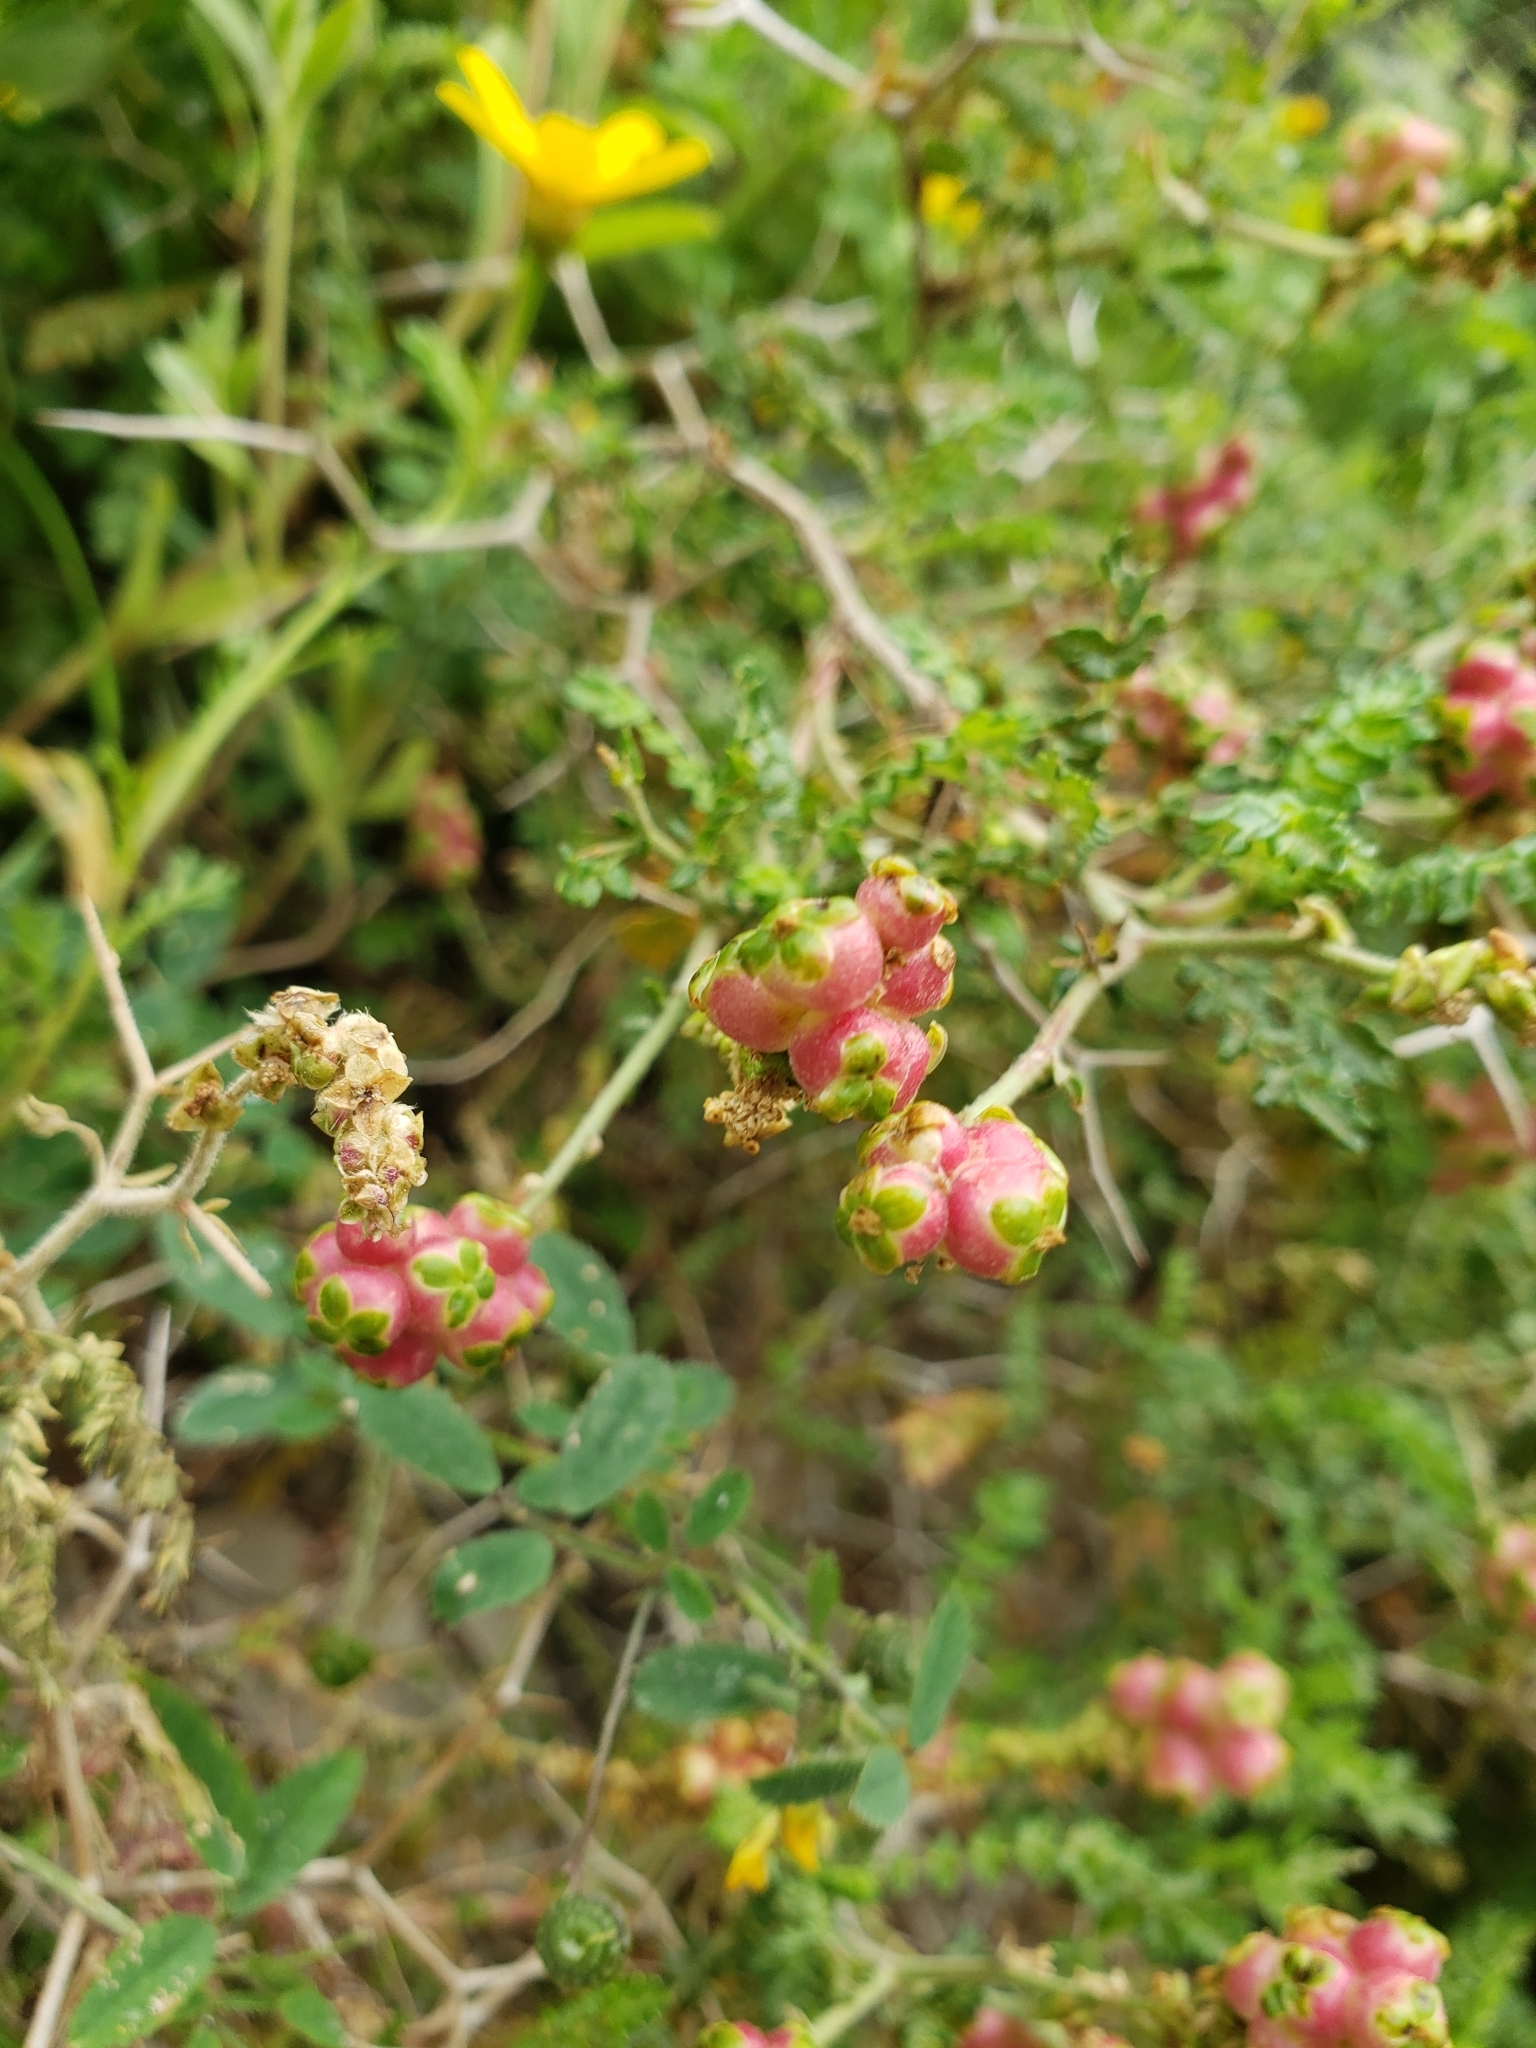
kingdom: Plantae
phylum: Tracheophyta
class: Magnoliopsida
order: Rosales
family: Rosaceae
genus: Sarcopoterium
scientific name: Sarcopoterium spinosum
